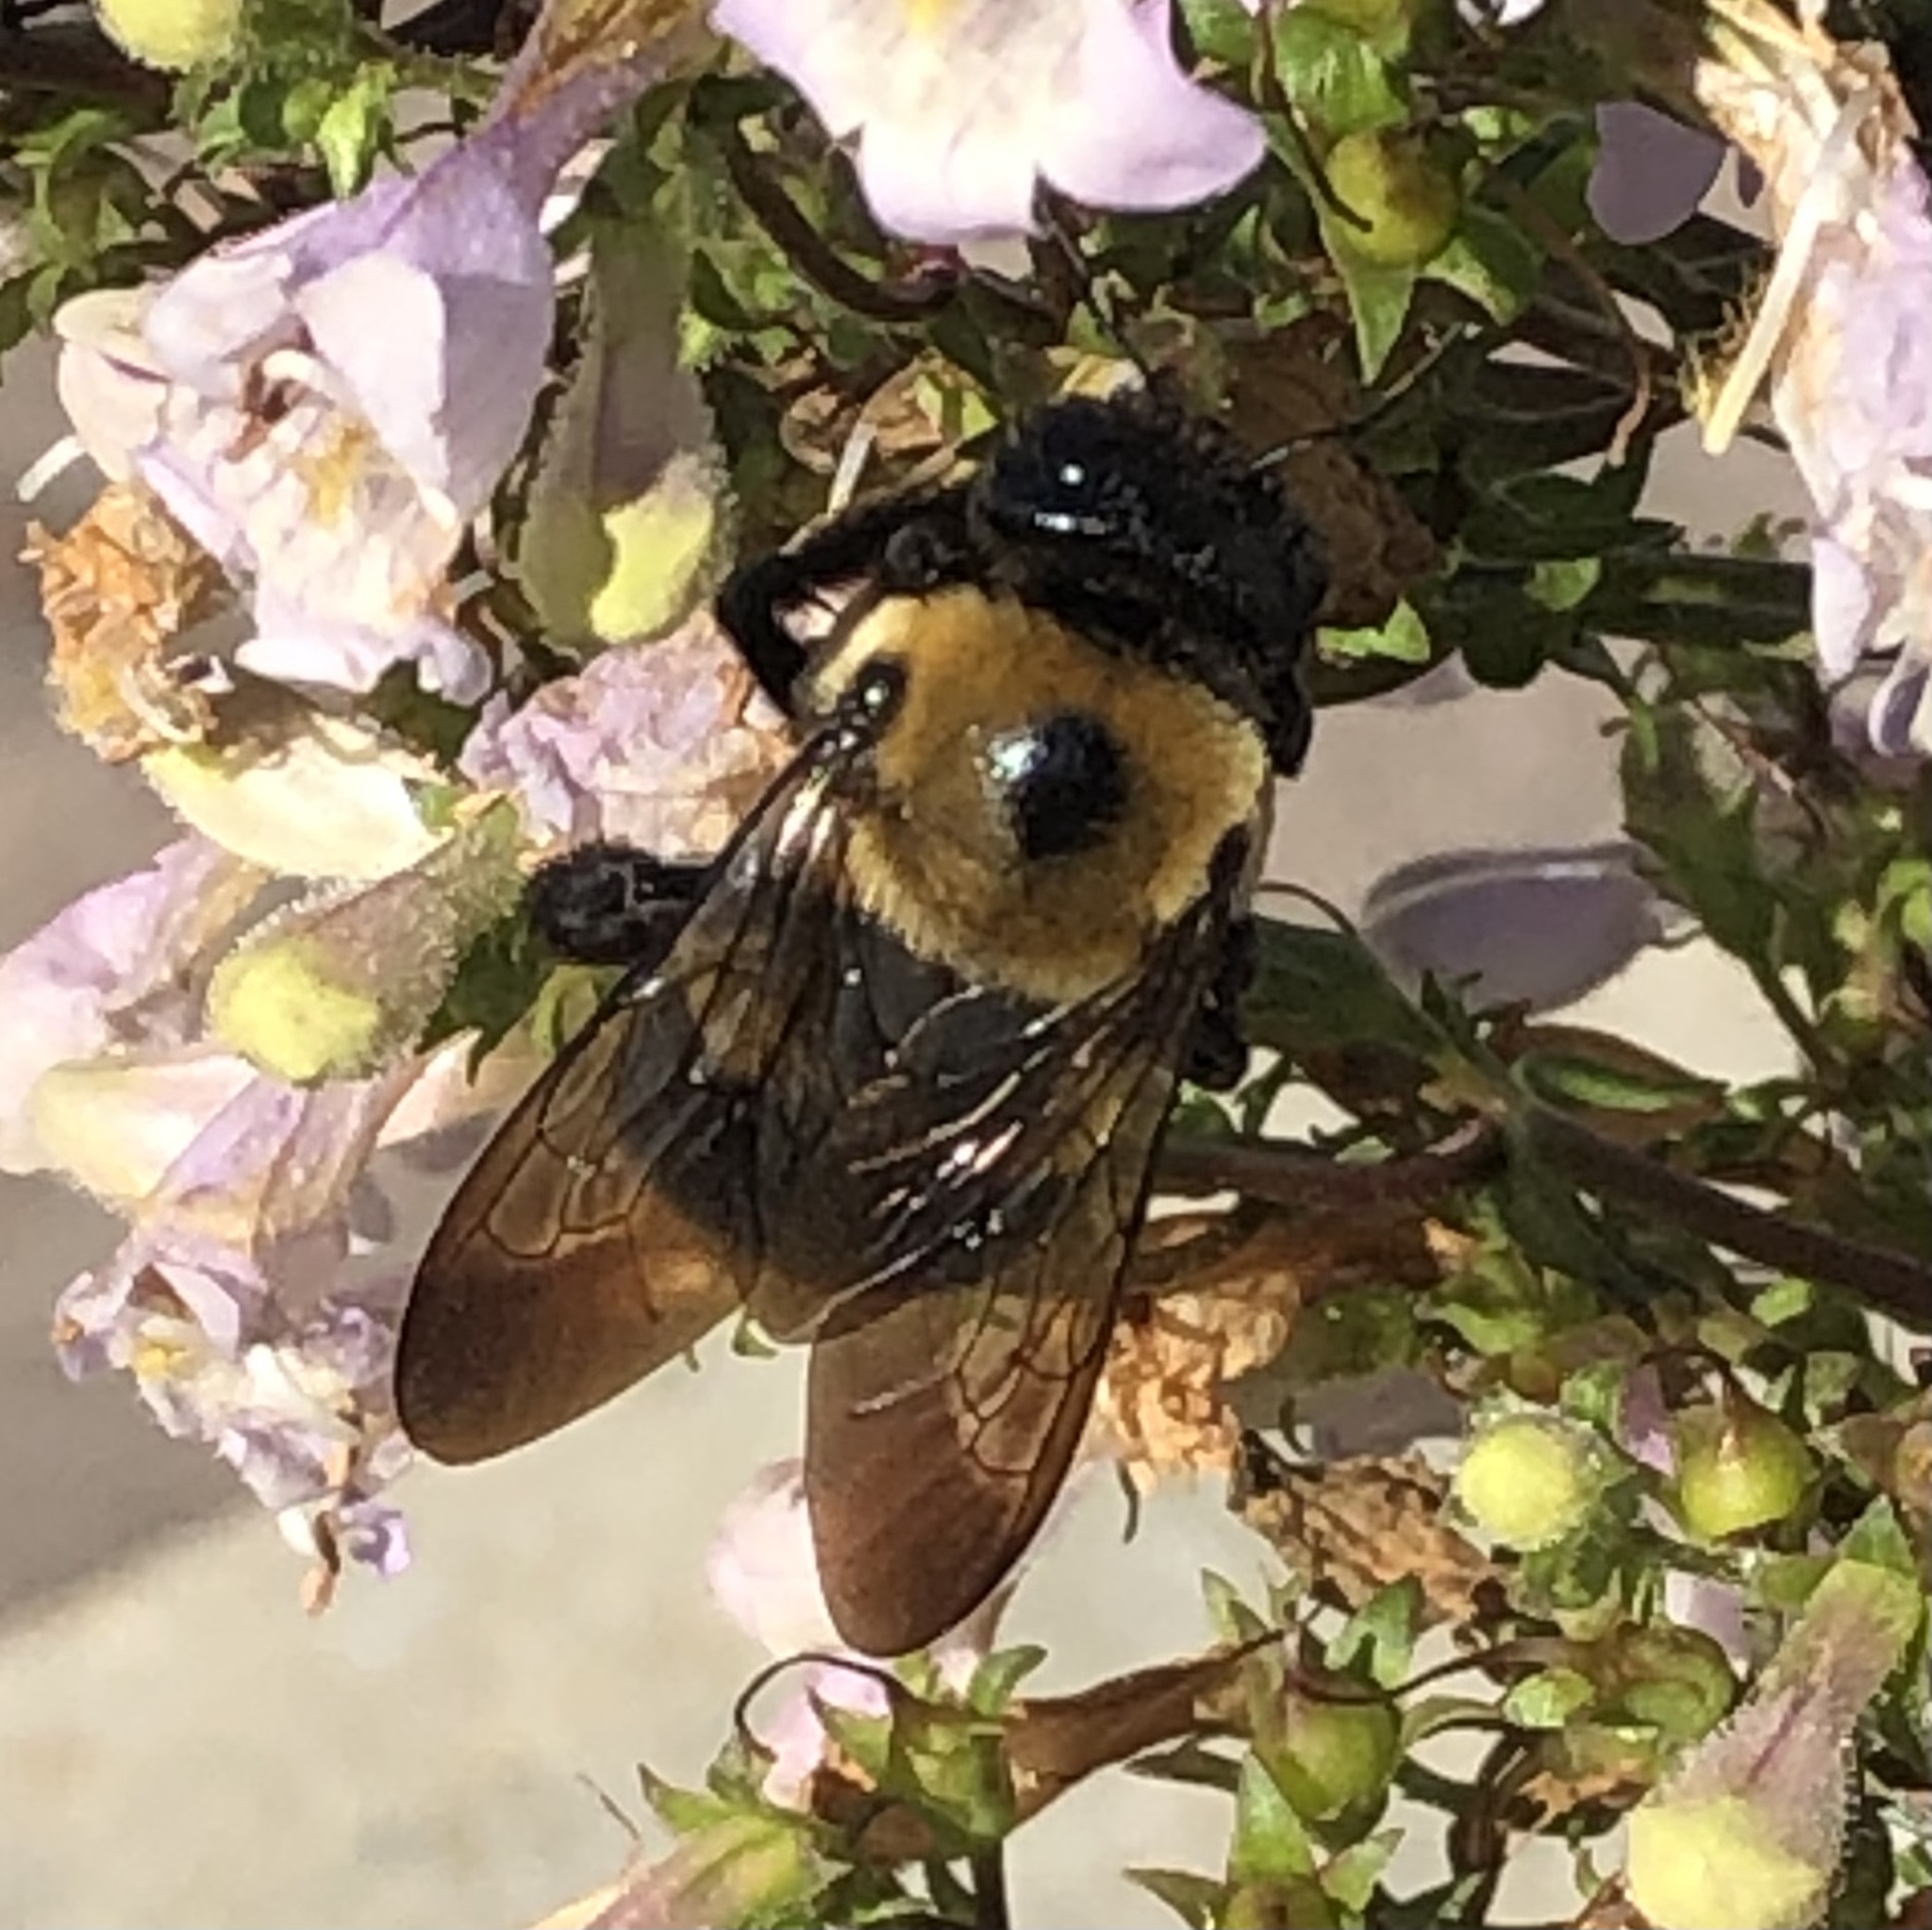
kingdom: Animalia
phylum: Arthropoda
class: Insecta
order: Hymenoptera
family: Apidae
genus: Xylocopa
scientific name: Xylocopa virginica
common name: Carpenter bee
